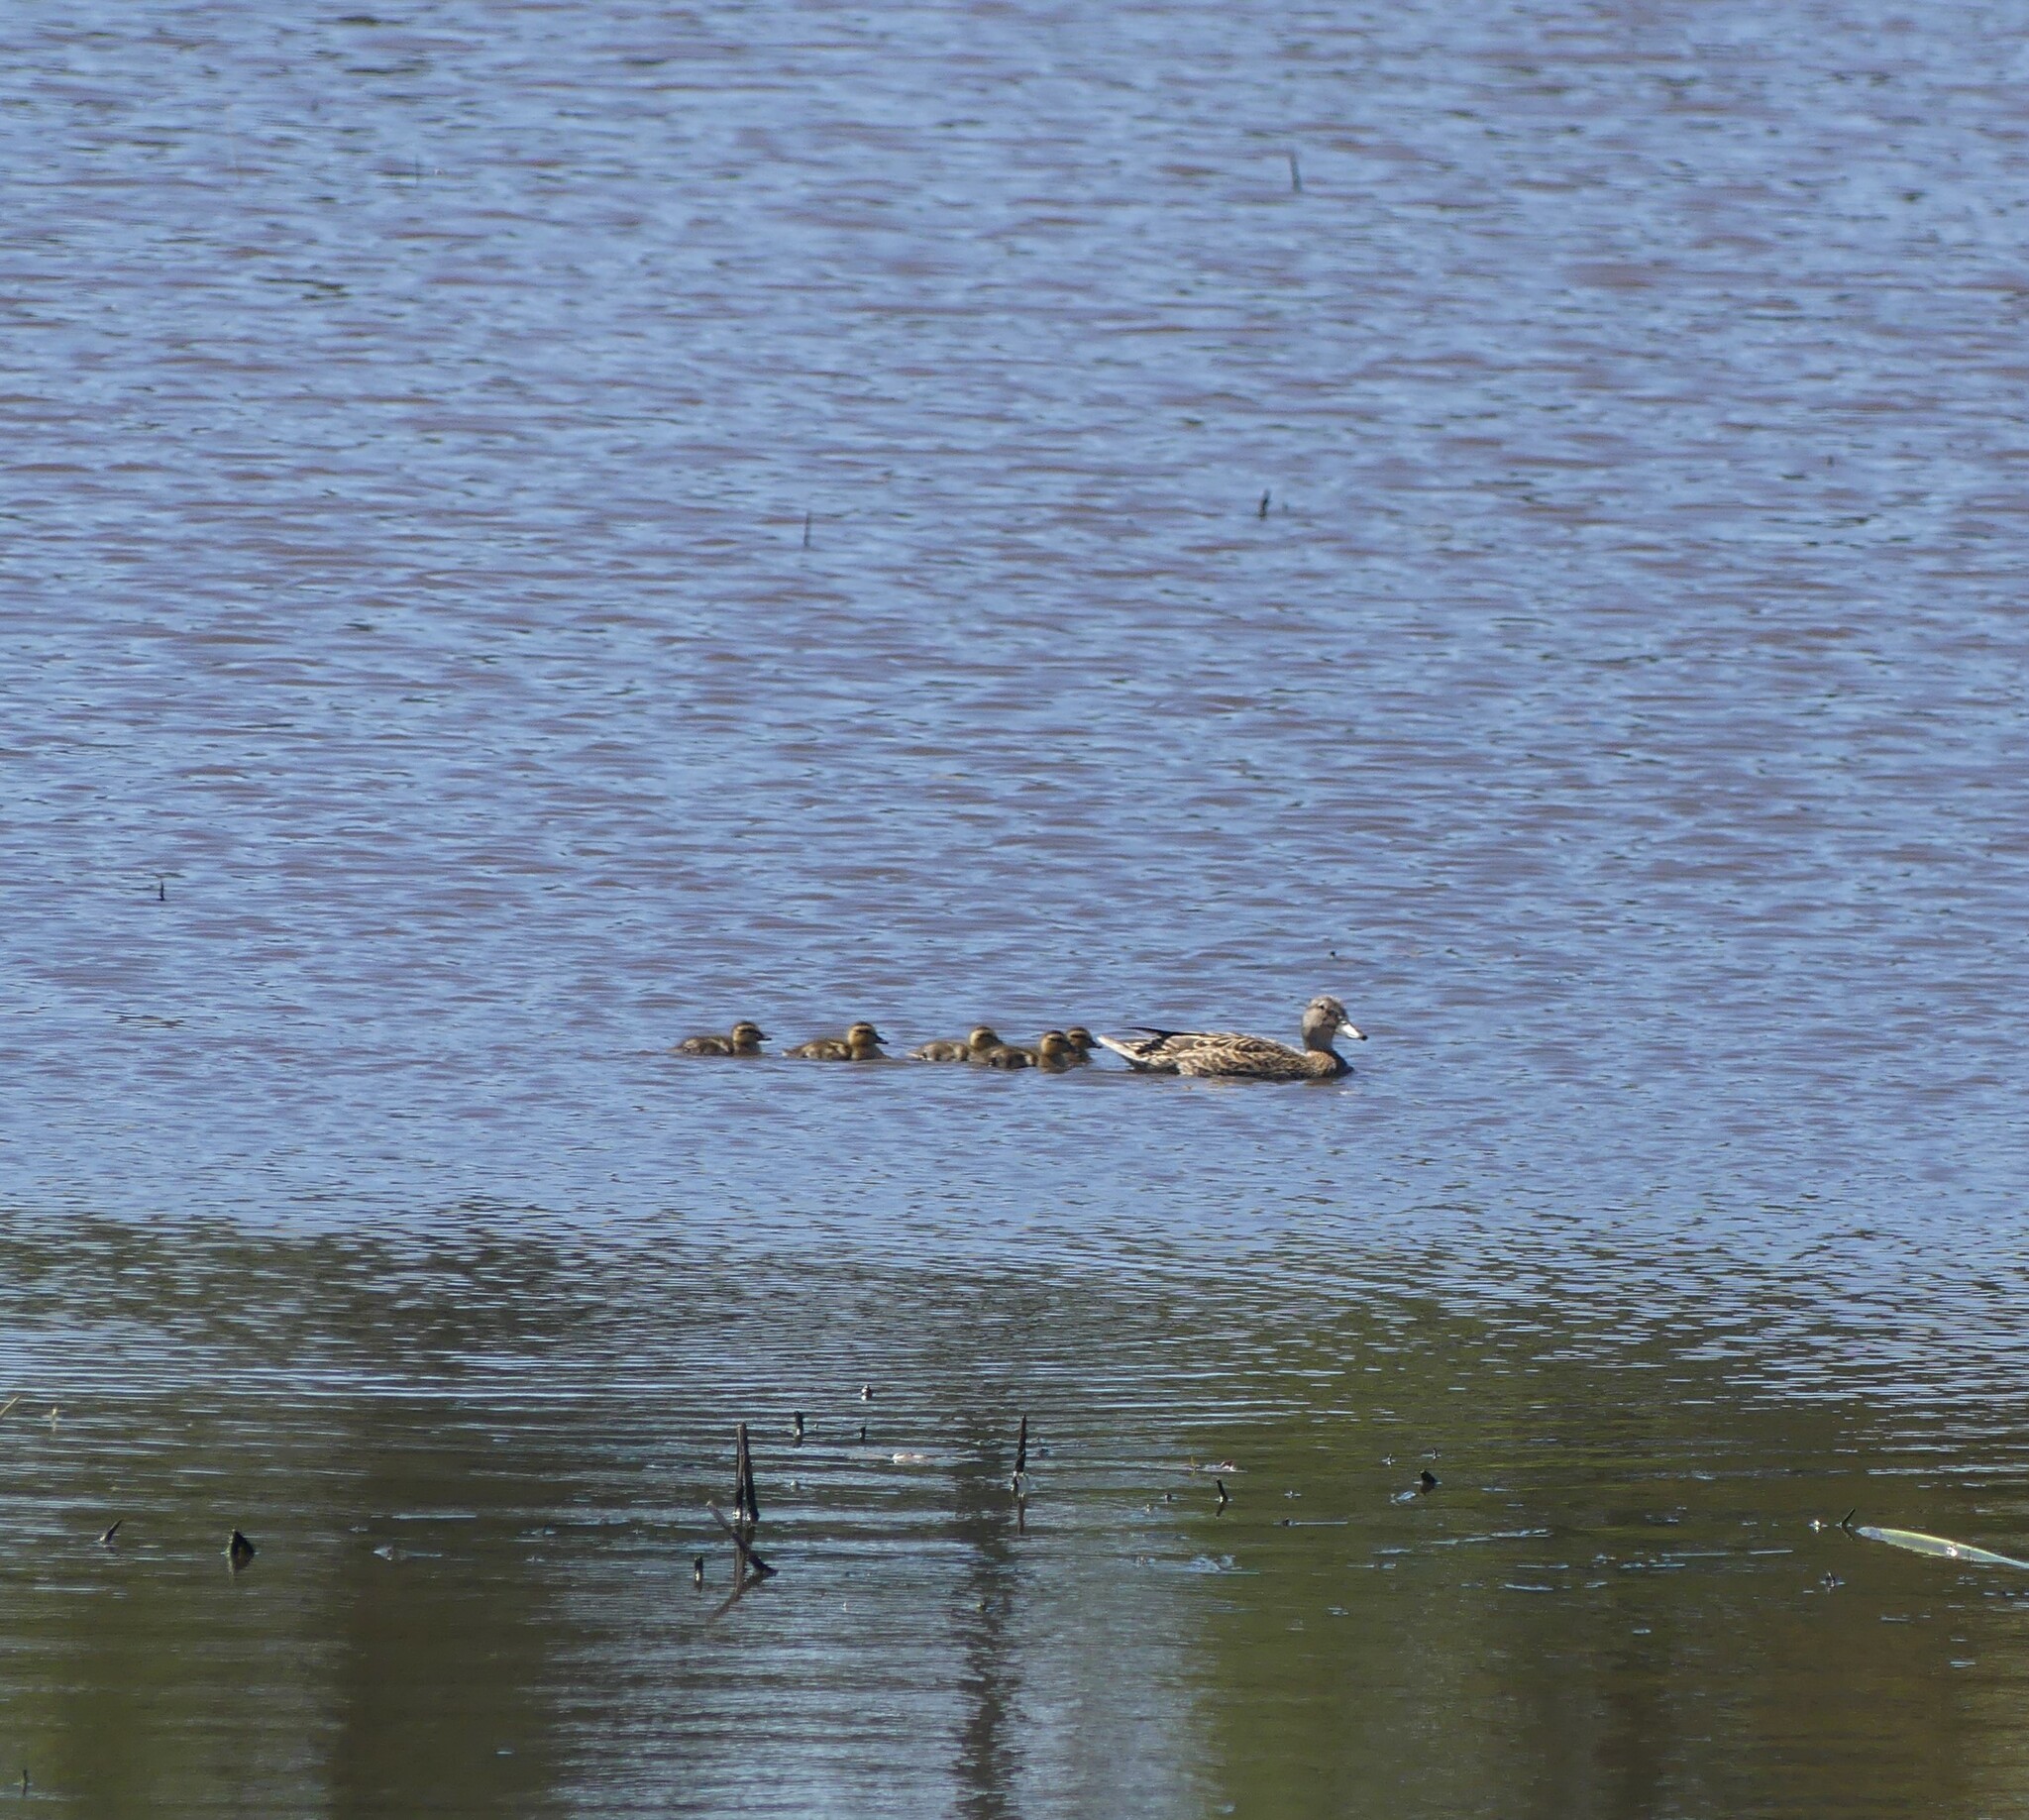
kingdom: Animalia
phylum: Chordata
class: Aves
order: Anseriformes
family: Anatidae
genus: Anas
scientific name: Anas platyrhynchos
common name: Mallard
